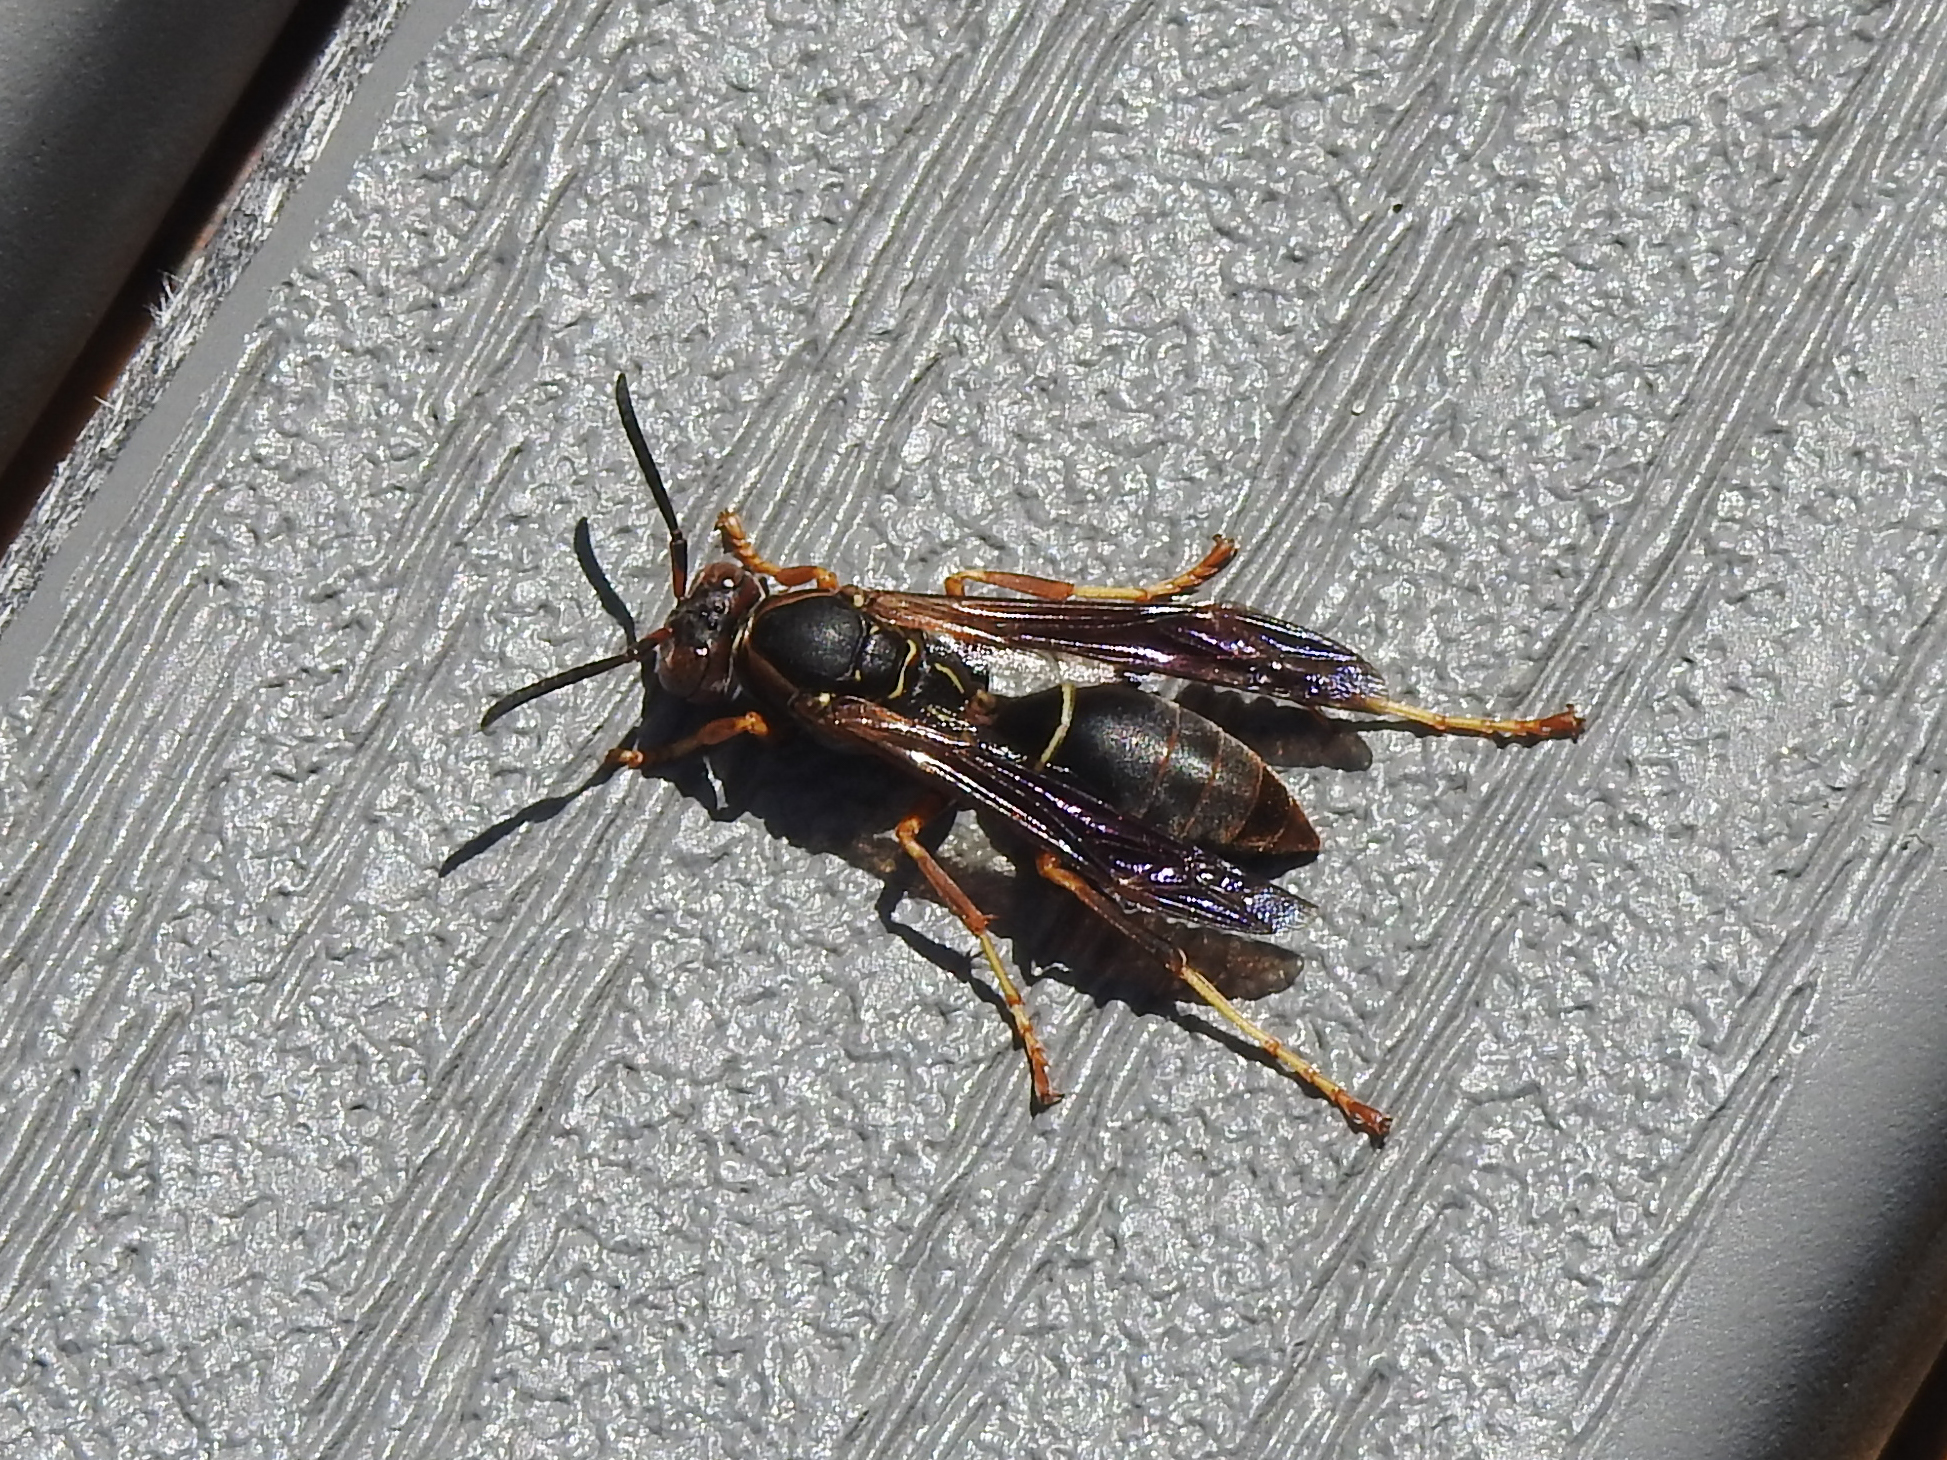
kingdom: Animalia
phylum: Arthropoda
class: Insecta
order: Hymenoptera
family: Eumenidae
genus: Polistes
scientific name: Polistes fuscatus
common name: Dark paper wasp
